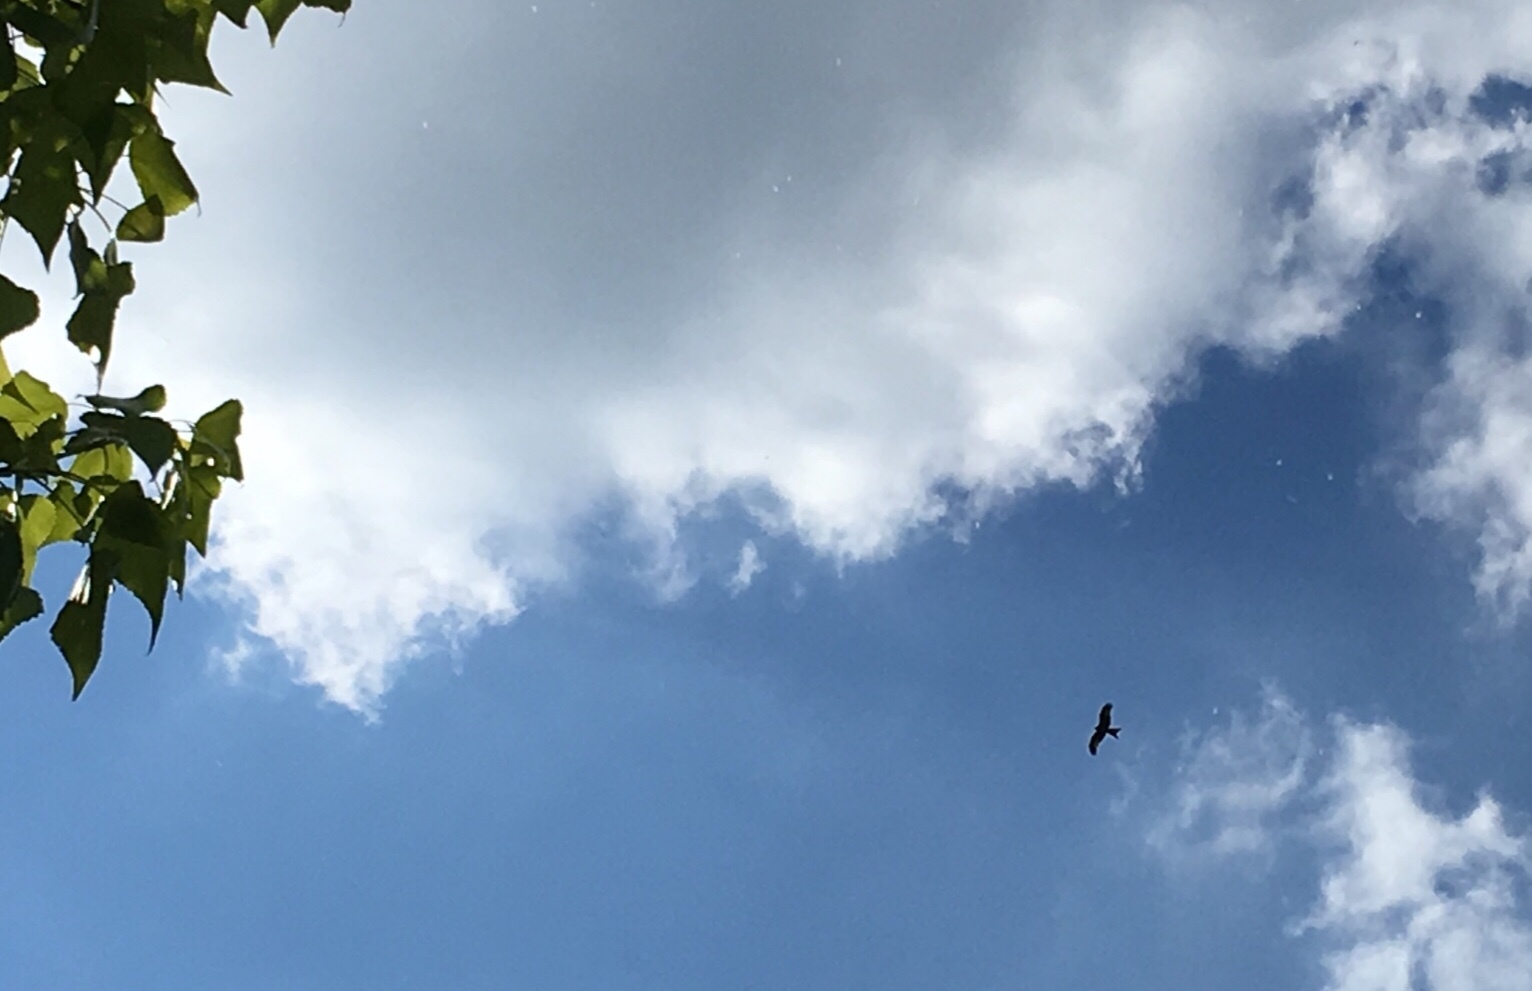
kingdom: Animalia
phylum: Chordata
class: Aves
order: Accipitriformes
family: Accipitridae
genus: Milvus
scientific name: Milvus milvus
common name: Red kite
